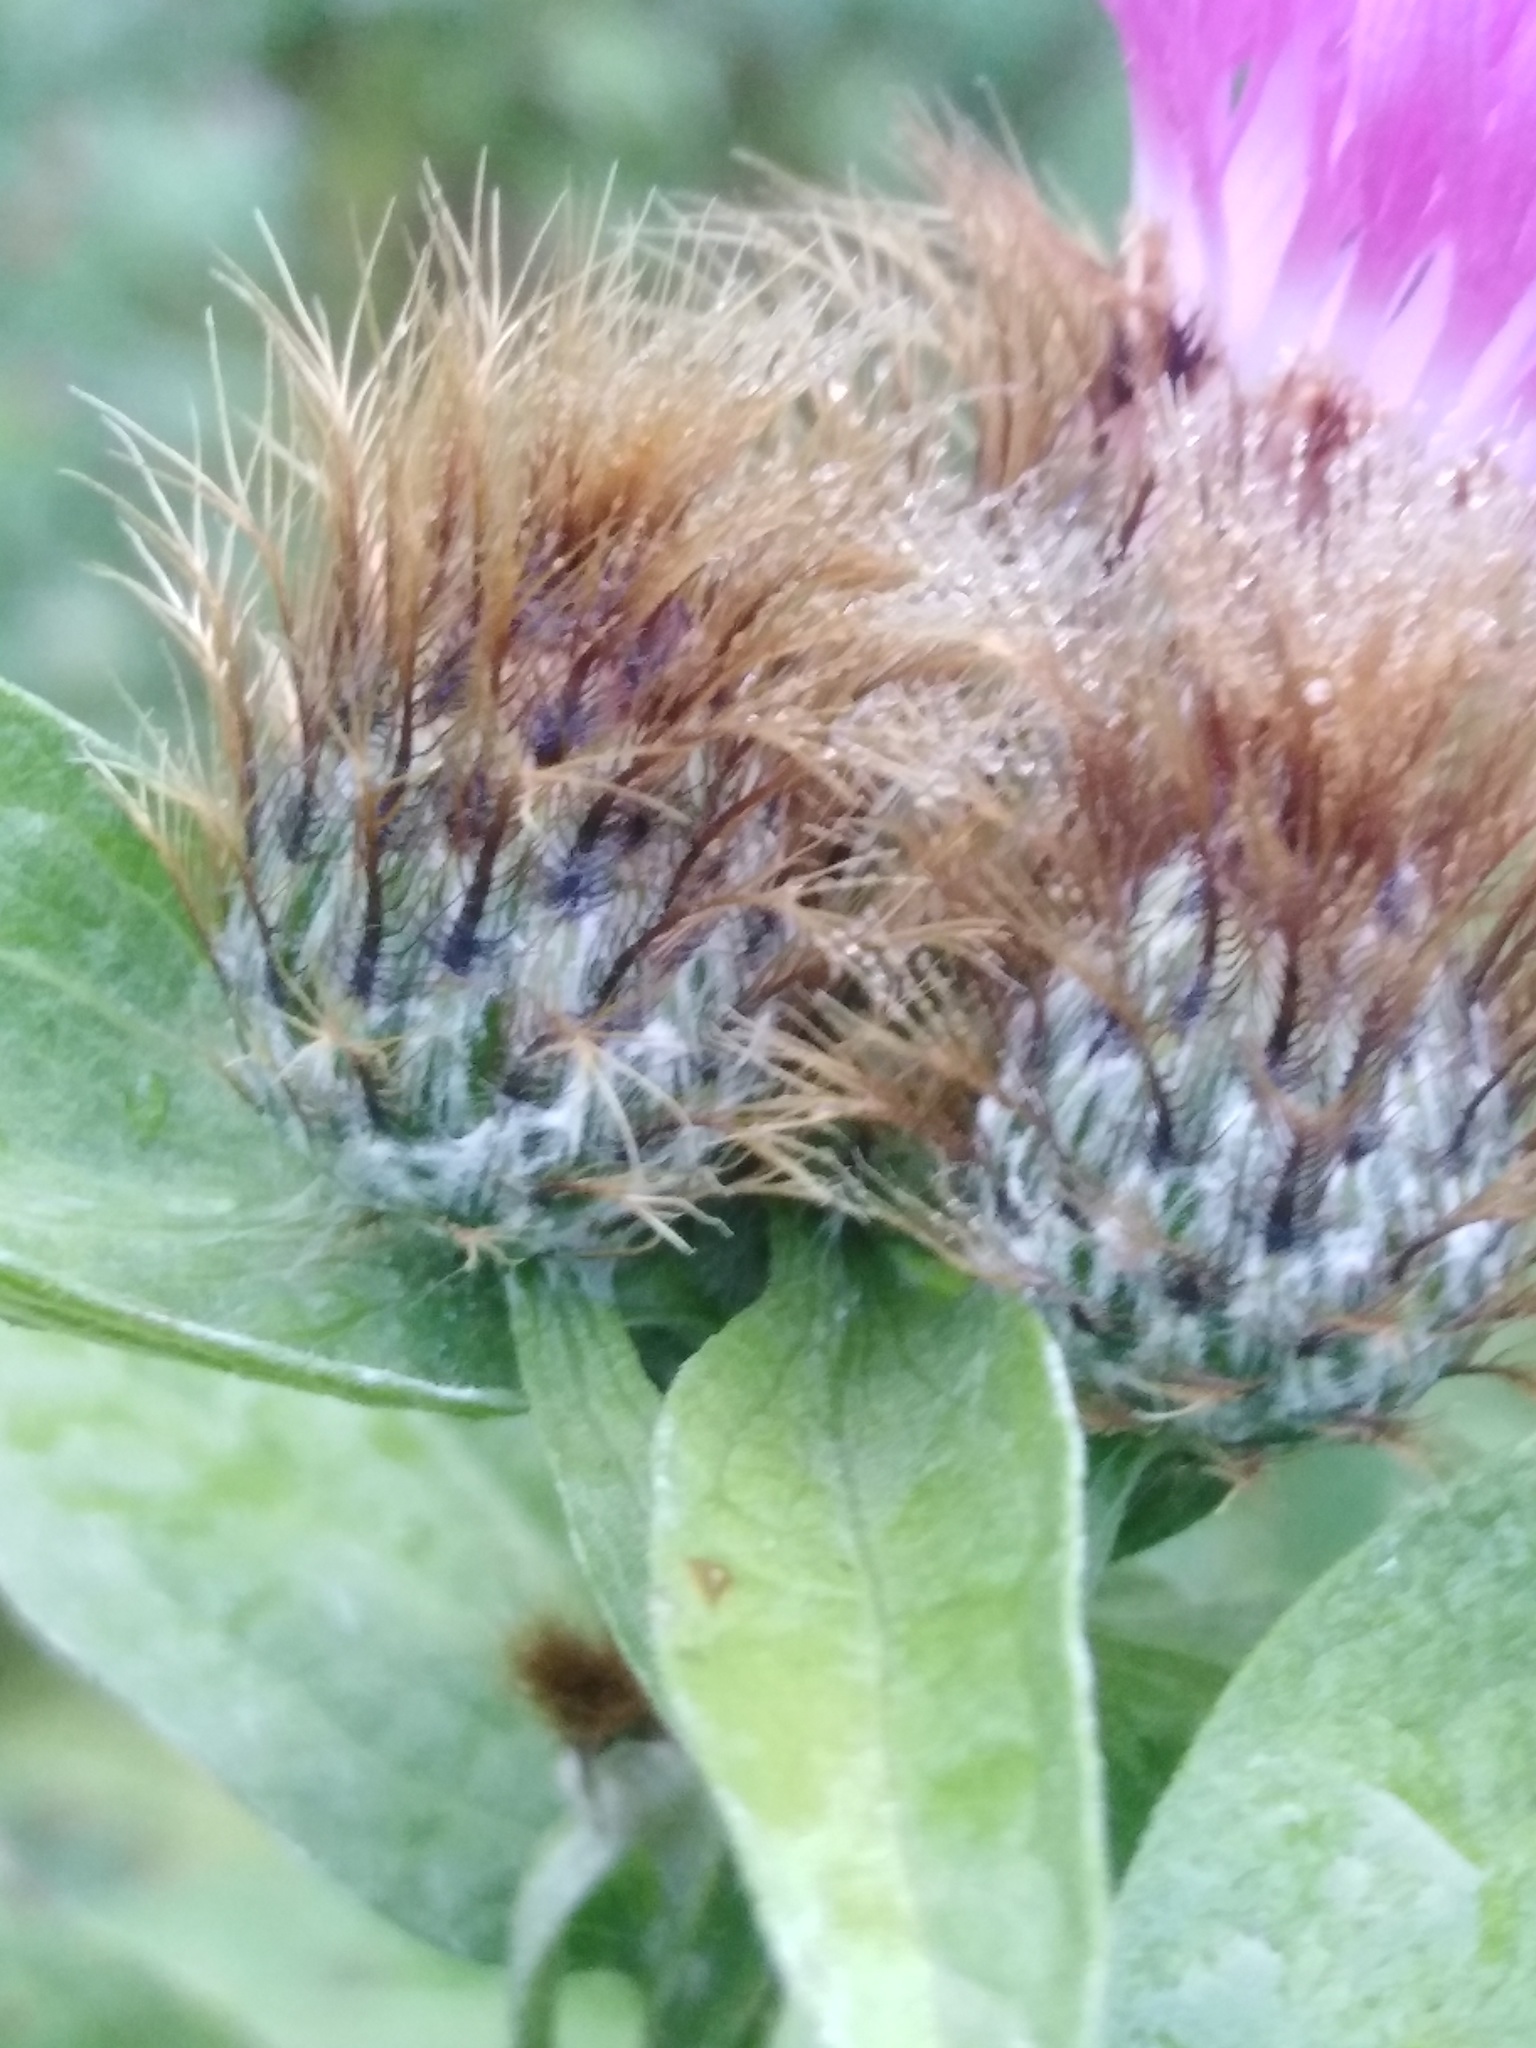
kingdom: Plantae
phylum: Tracheophyta
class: Magnoliopsida
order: Asterales
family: Asteraceae
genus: Centaurea
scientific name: Centaurea pseudophrygia
